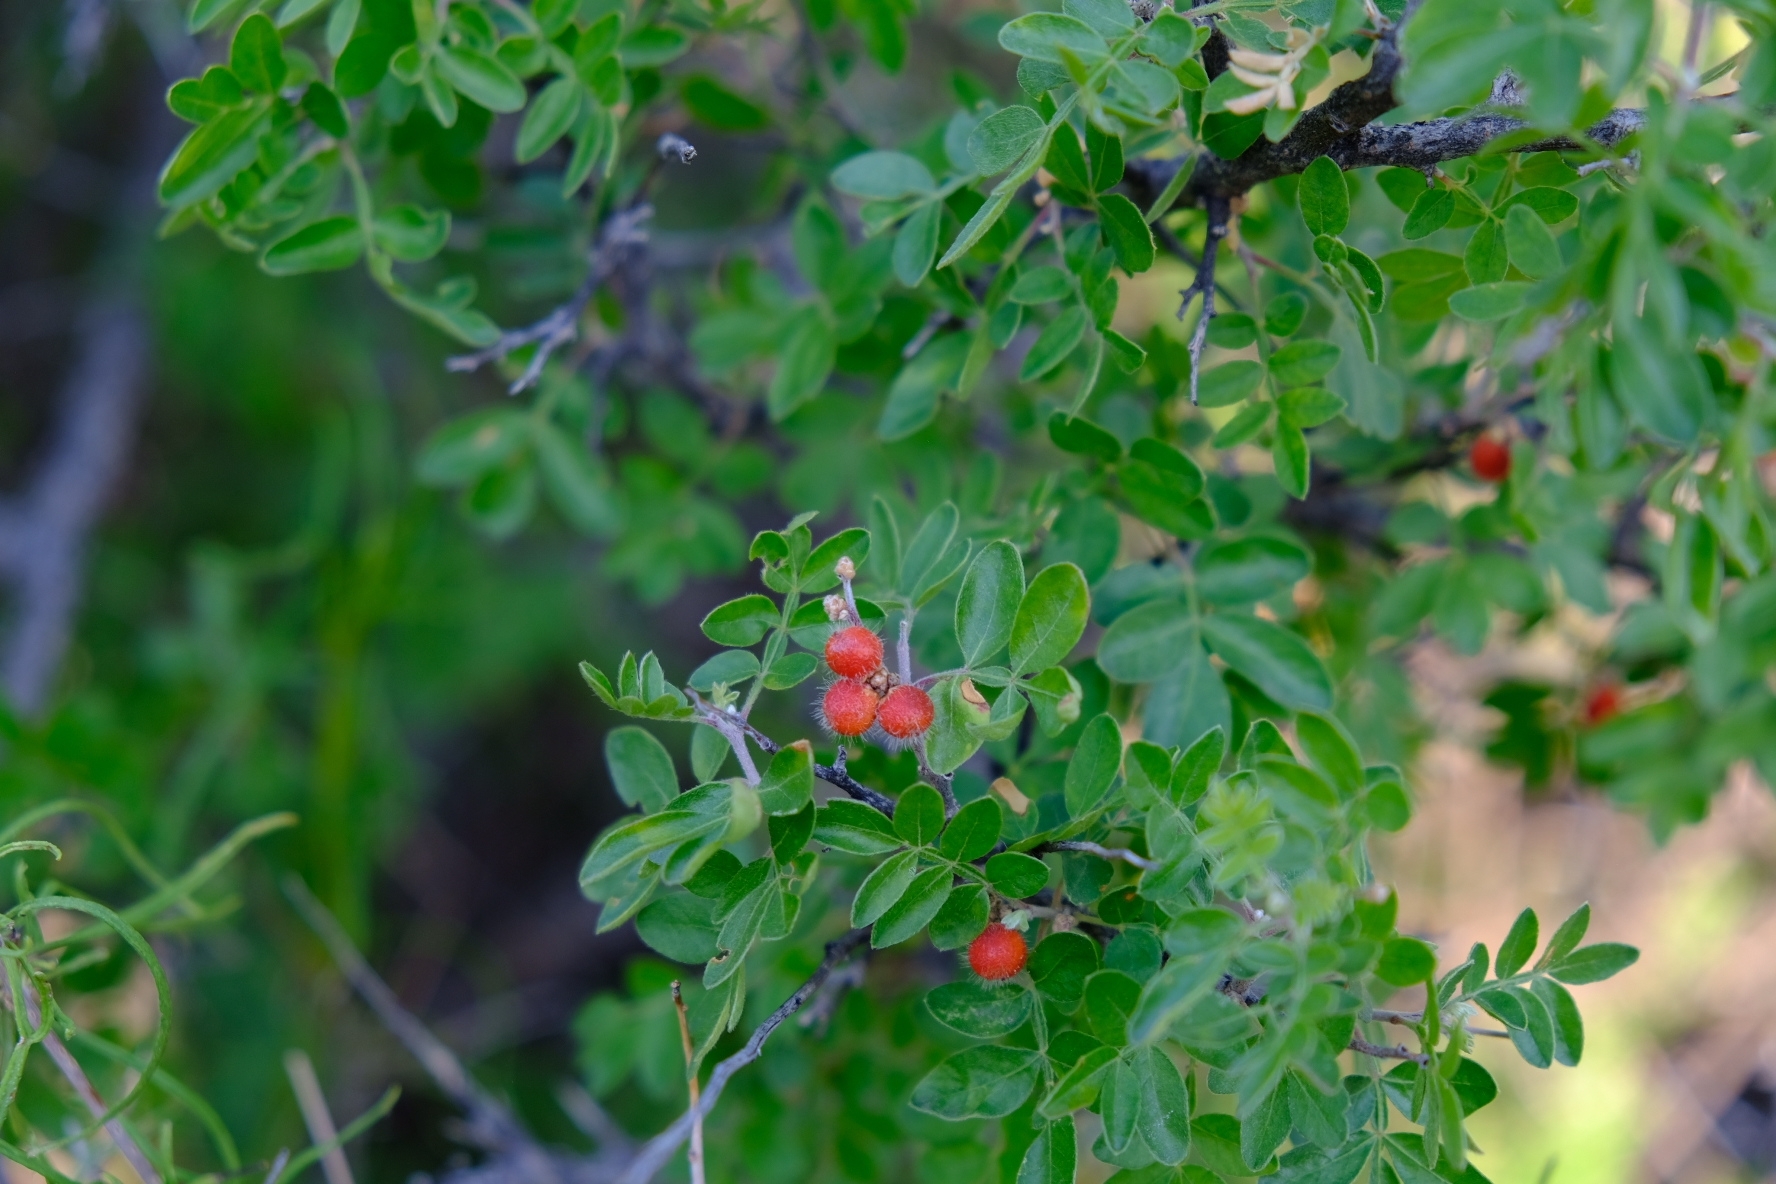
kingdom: Plantae
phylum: Tracheophyta
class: Magnoliopsida
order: Sapindales
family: Anacardiaceae
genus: Rhus
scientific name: Rhus microphylla
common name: Desert sumac
